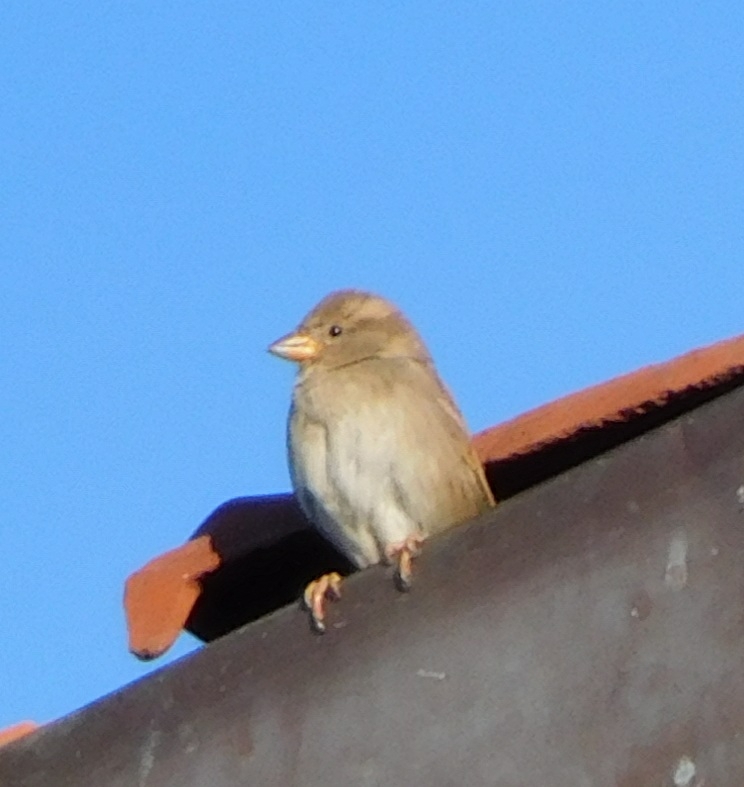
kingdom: Animalia
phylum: Chordata
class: Aves
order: Passeriformes
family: Passeridae
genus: Passer
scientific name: Passer italiae
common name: Italian sparrow
